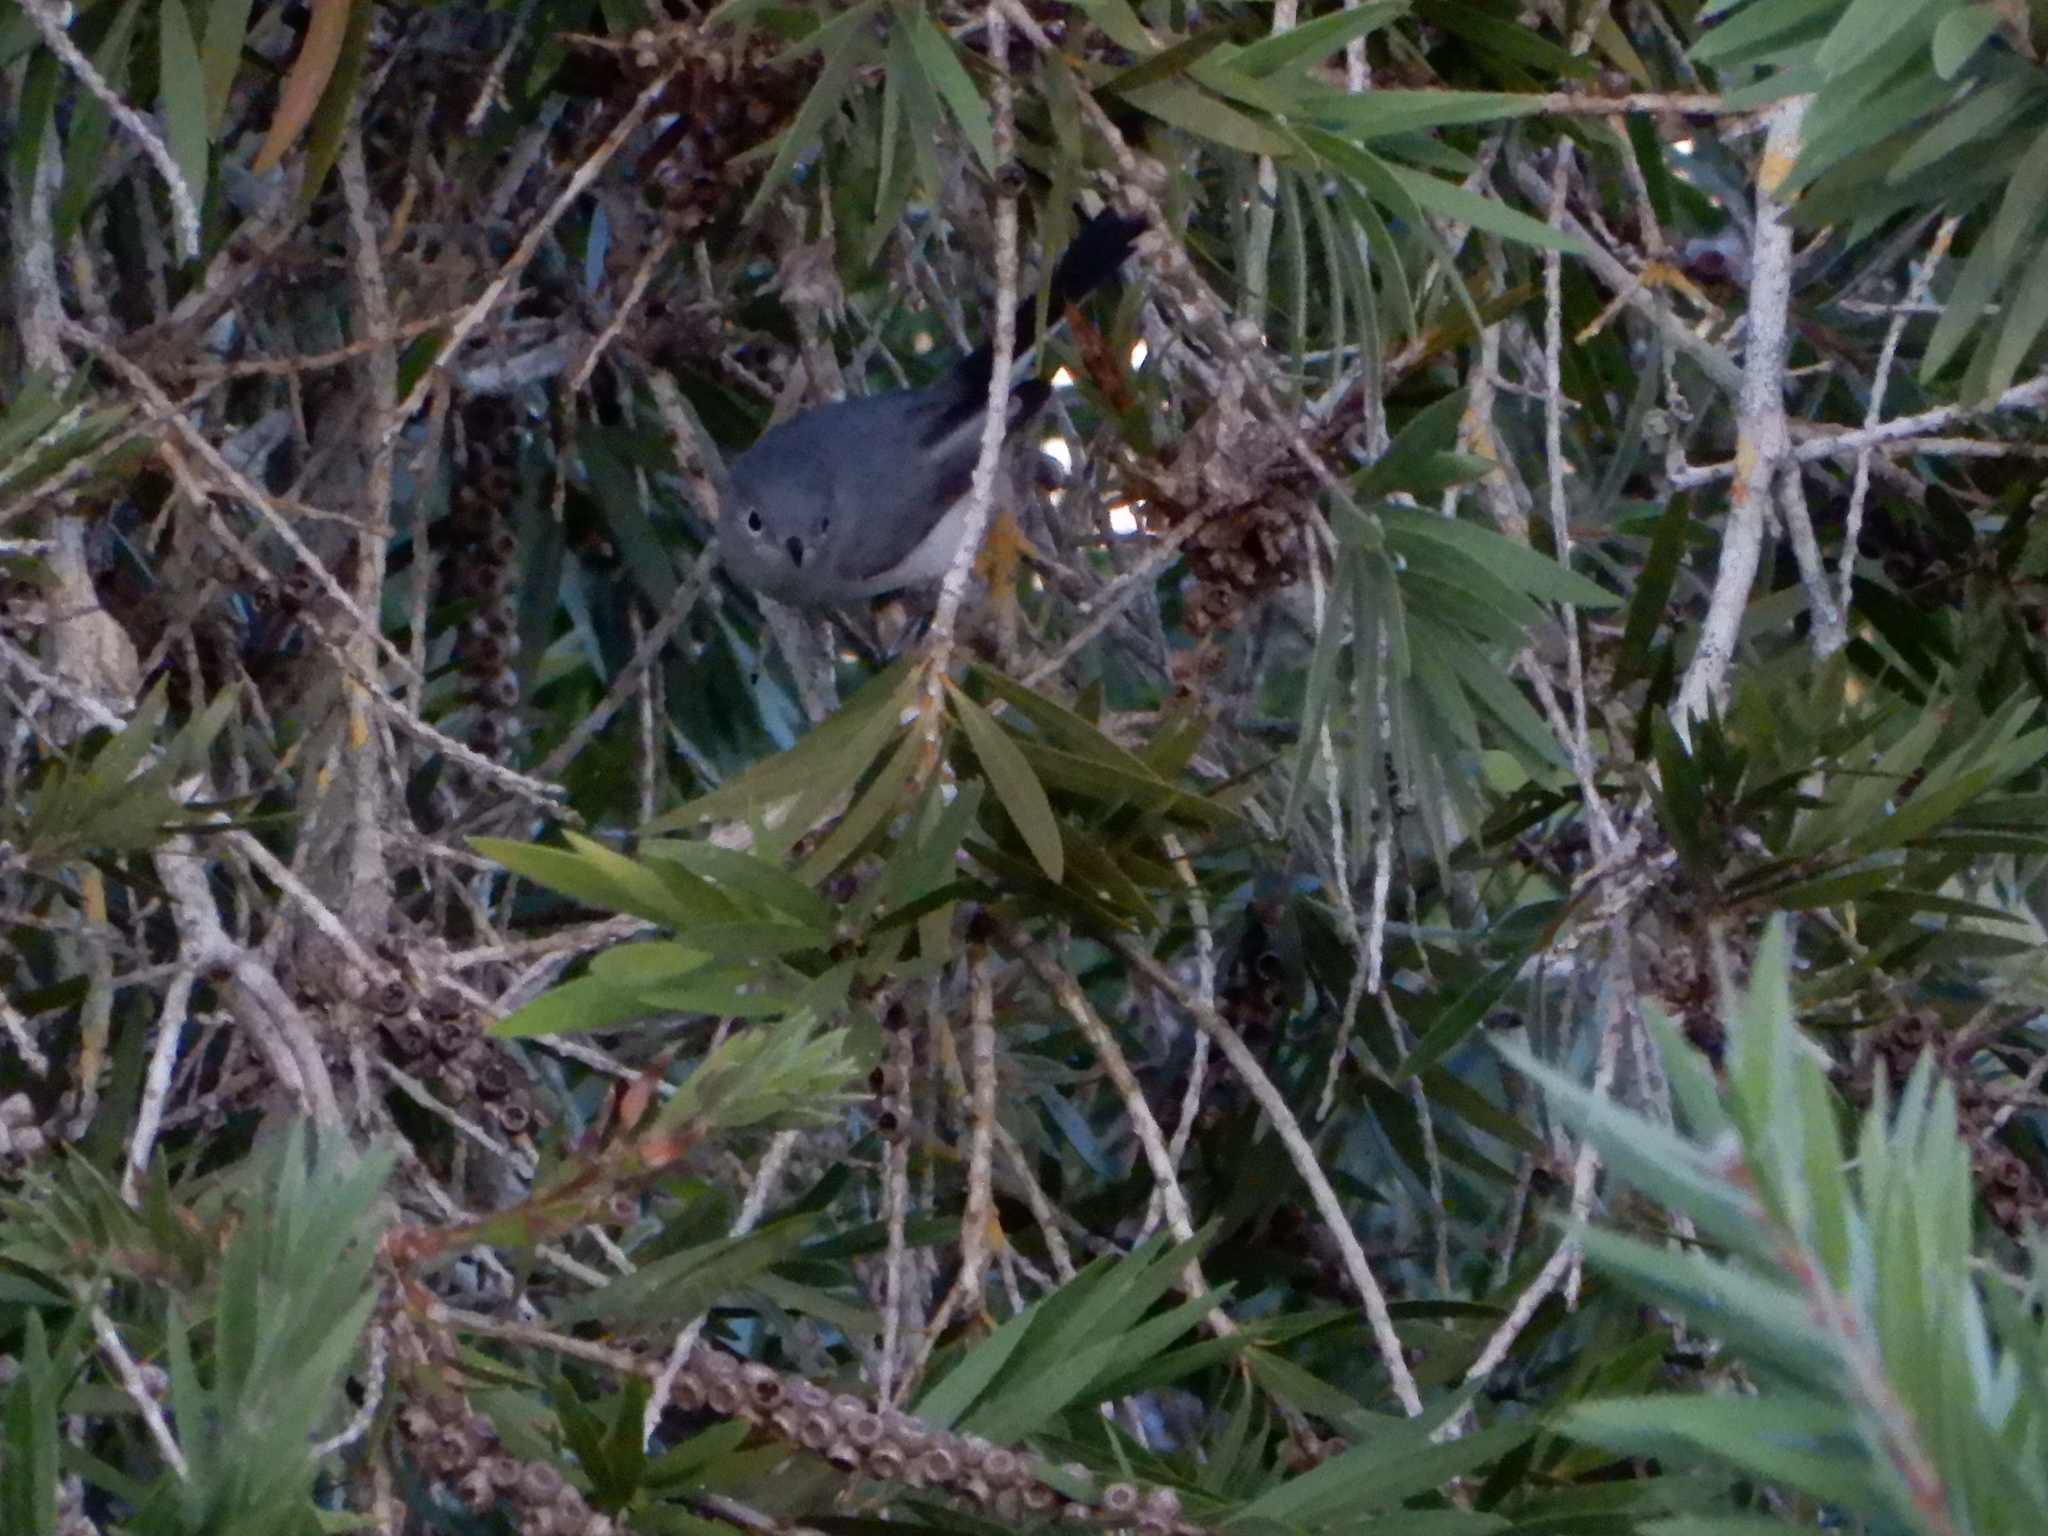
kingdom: Animalia
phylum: Chordata
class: Aves
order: Passeriformes
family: Polioptilidae
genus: Polioptila
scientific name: Polioptila caerulea
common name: Blue-gray gnatcatcher
